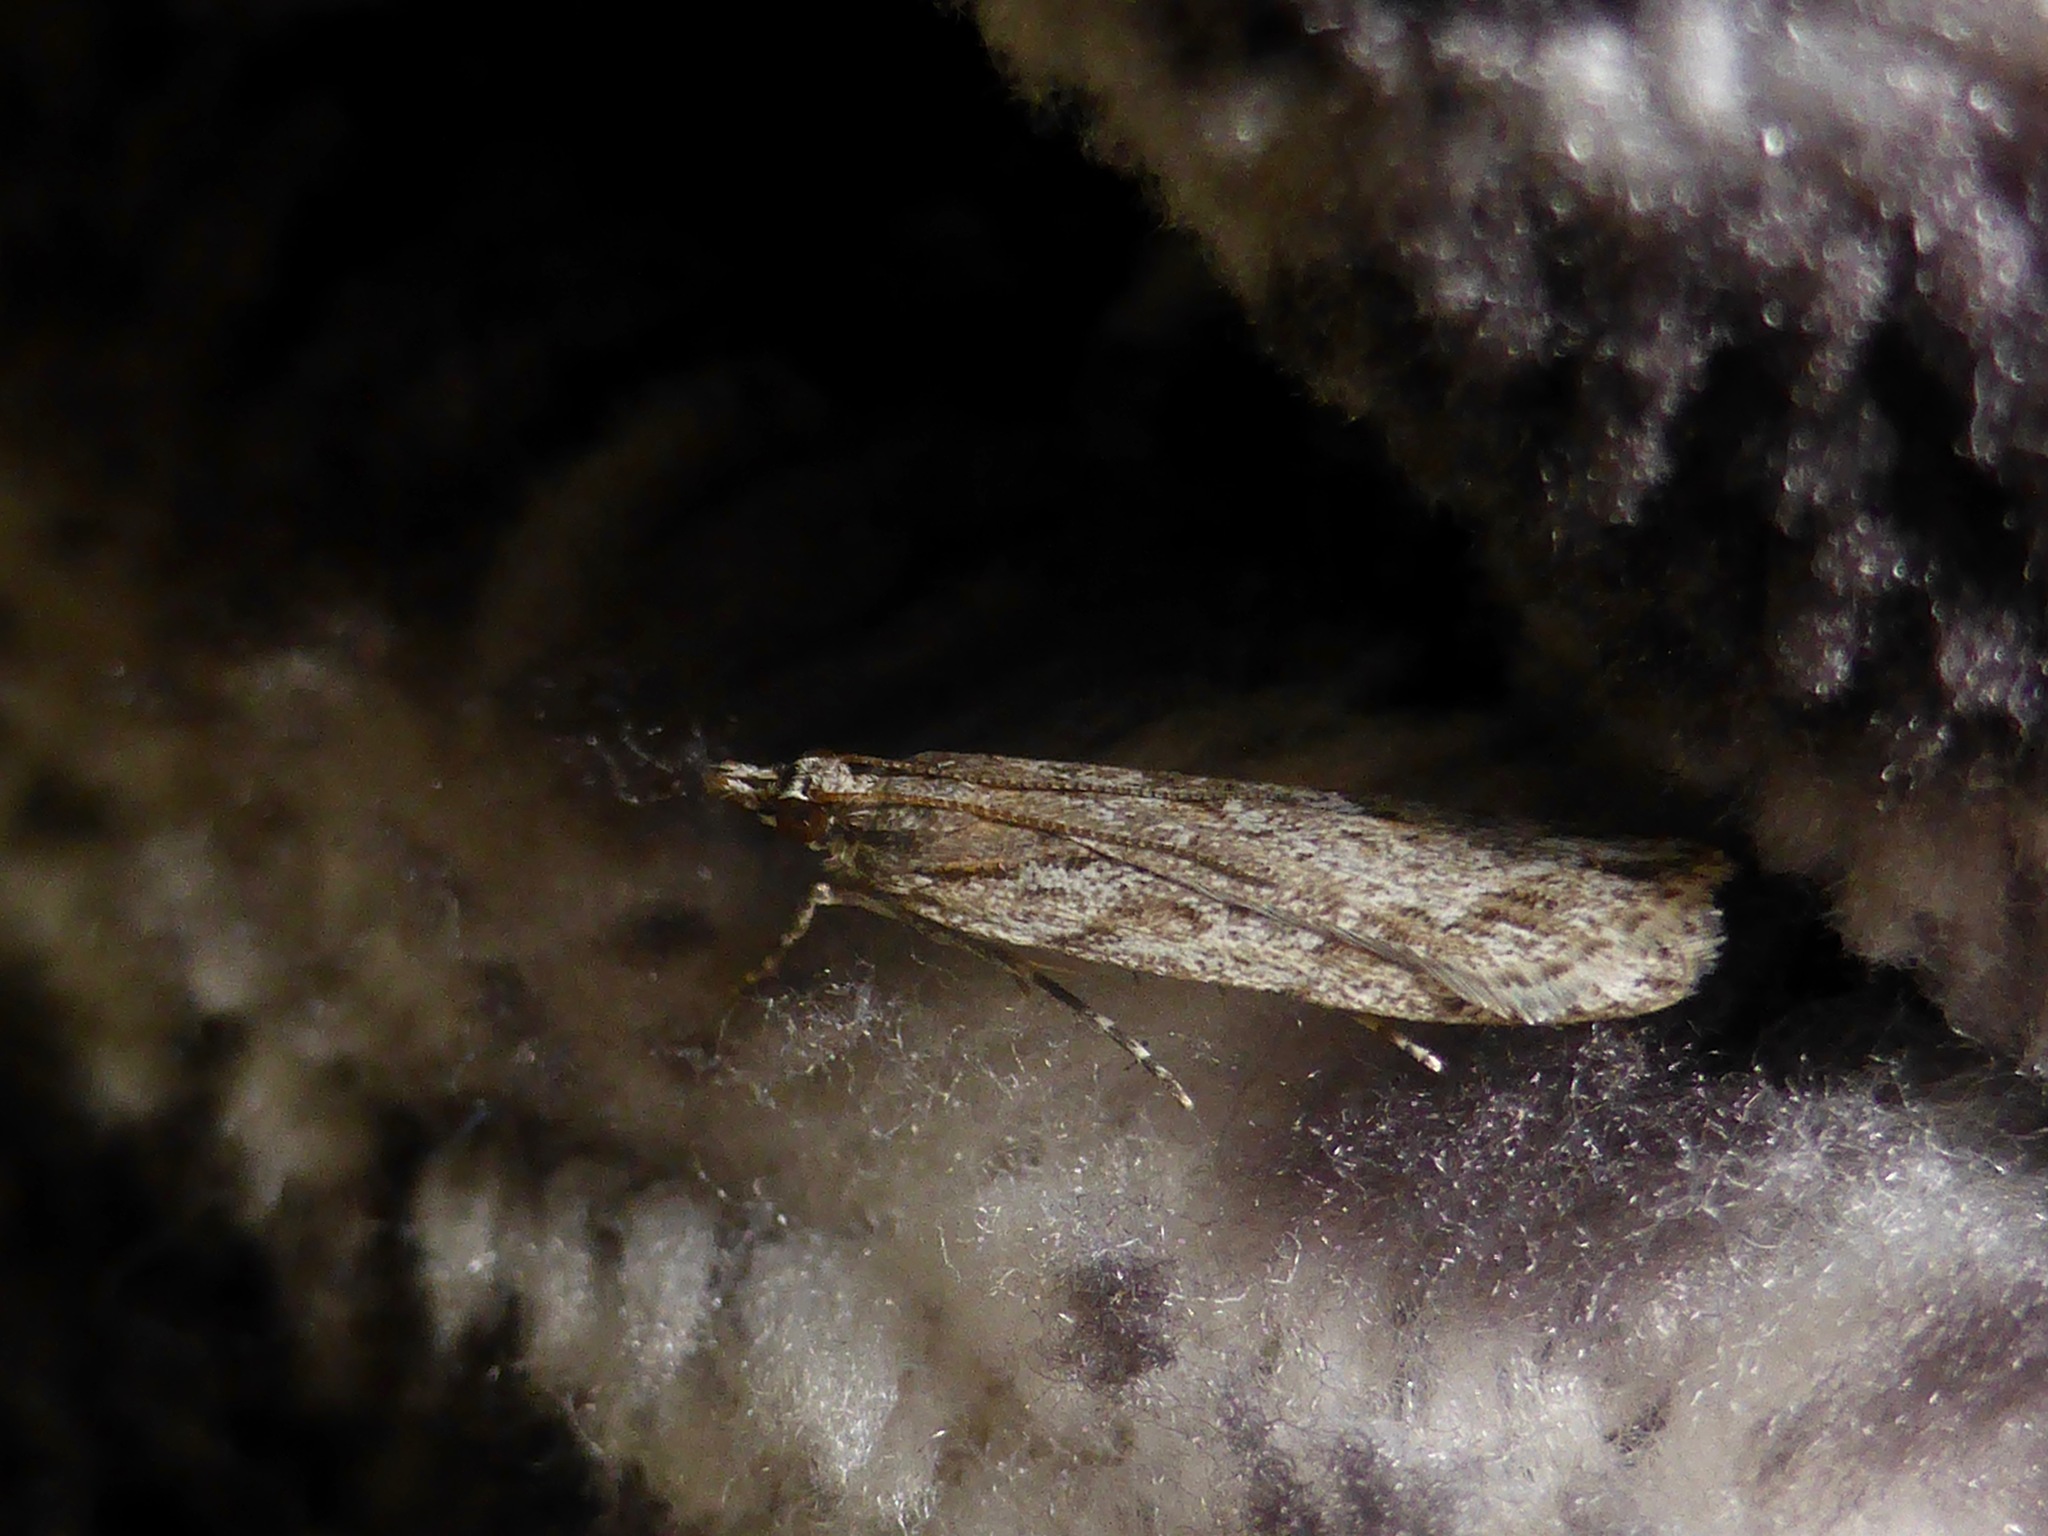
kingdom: Animalia
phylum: Arthropoda
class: Insecta
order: Lepidoptera
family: Crambidae
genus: Scoparia
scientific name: Scoparia chalicodes
